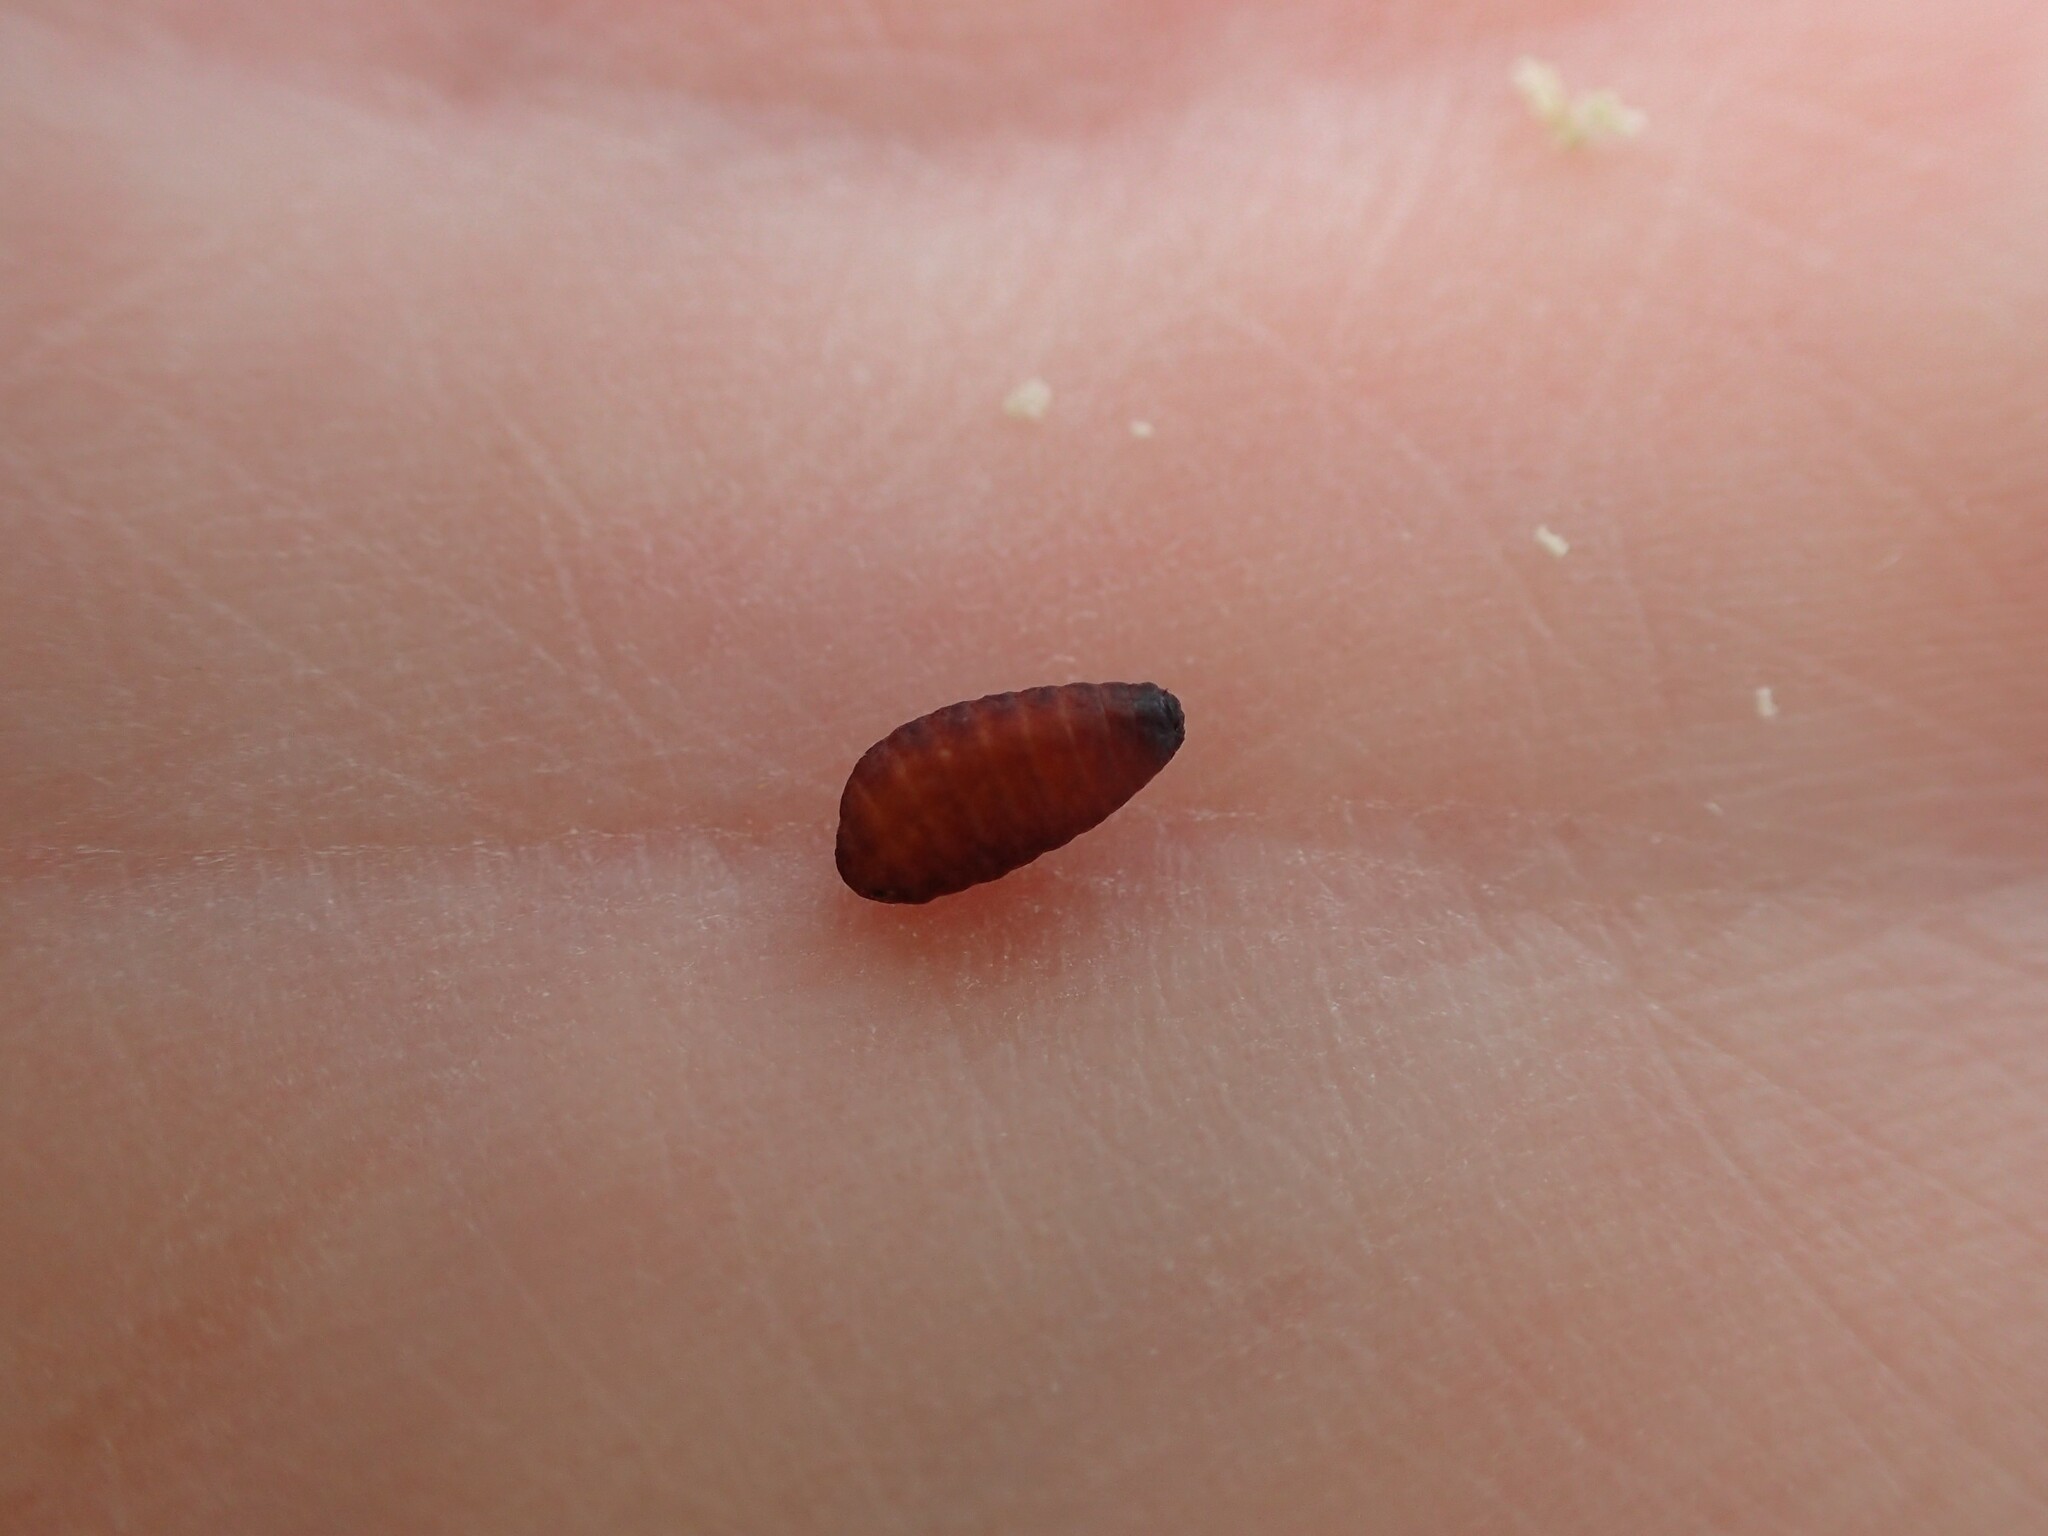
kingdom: Animalia
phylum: Arthropoda
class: Insecta
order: Diptera
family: Tephritidae
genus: Eurosta
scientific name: Eurosta solidaginis
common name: Goldenrod gall fly
